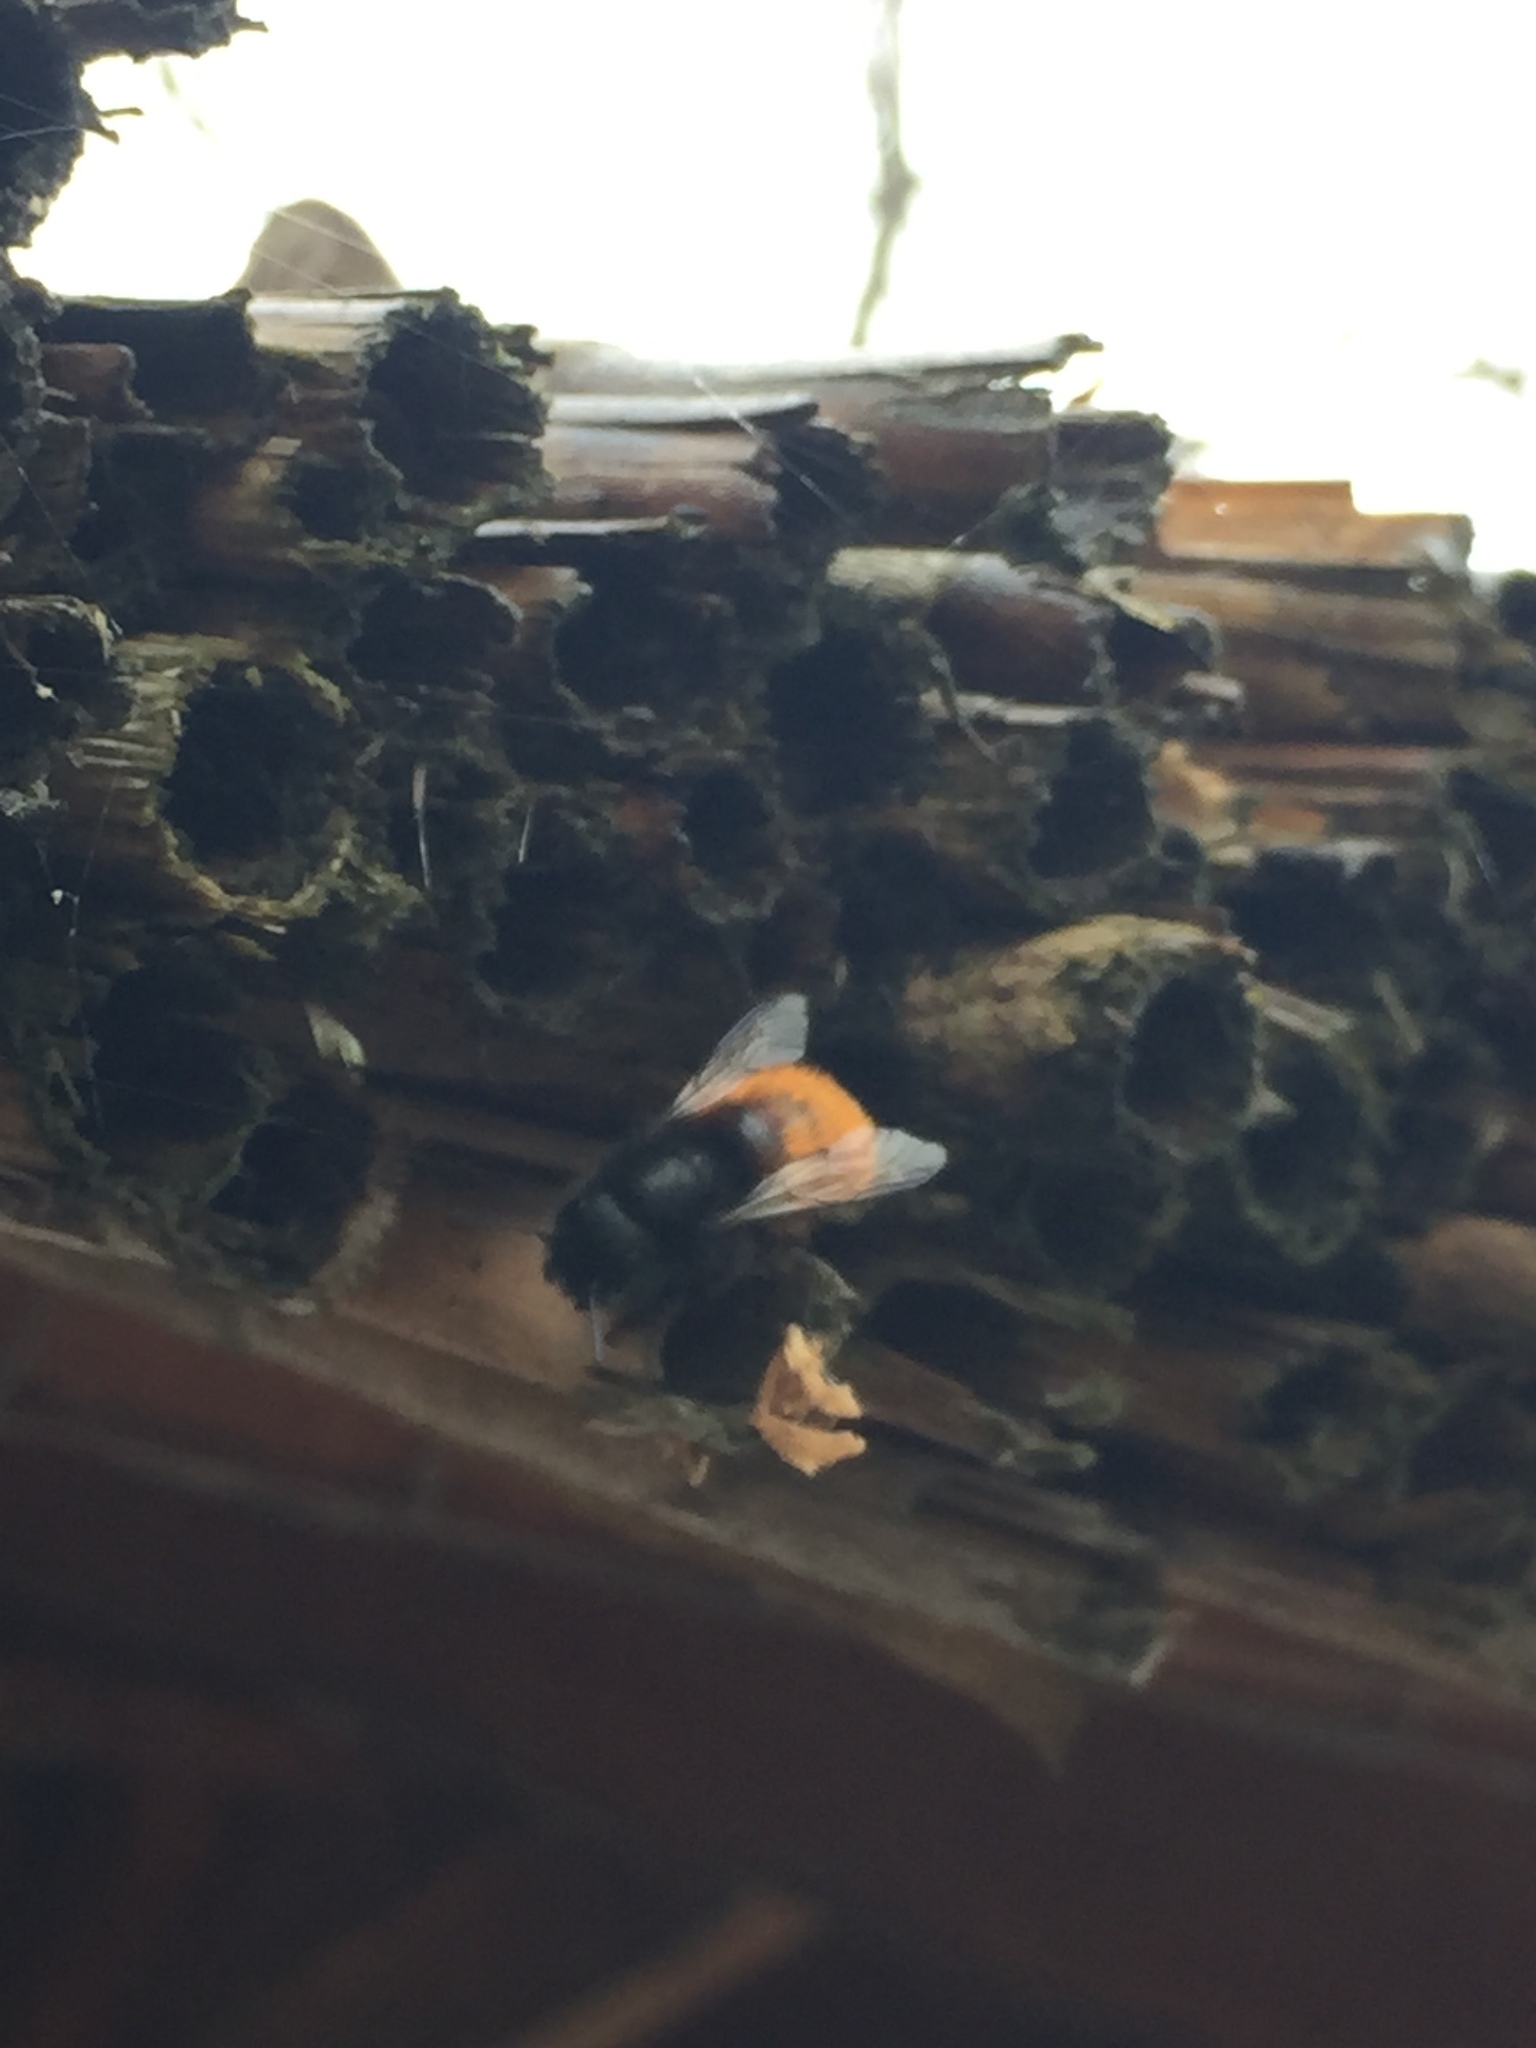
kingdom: Animalia
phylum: Arthropoda
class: Insecta
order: Hymenoptera
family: Megachilidae
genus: Osmia
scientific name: Osmia cornuta
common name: Mason bee
